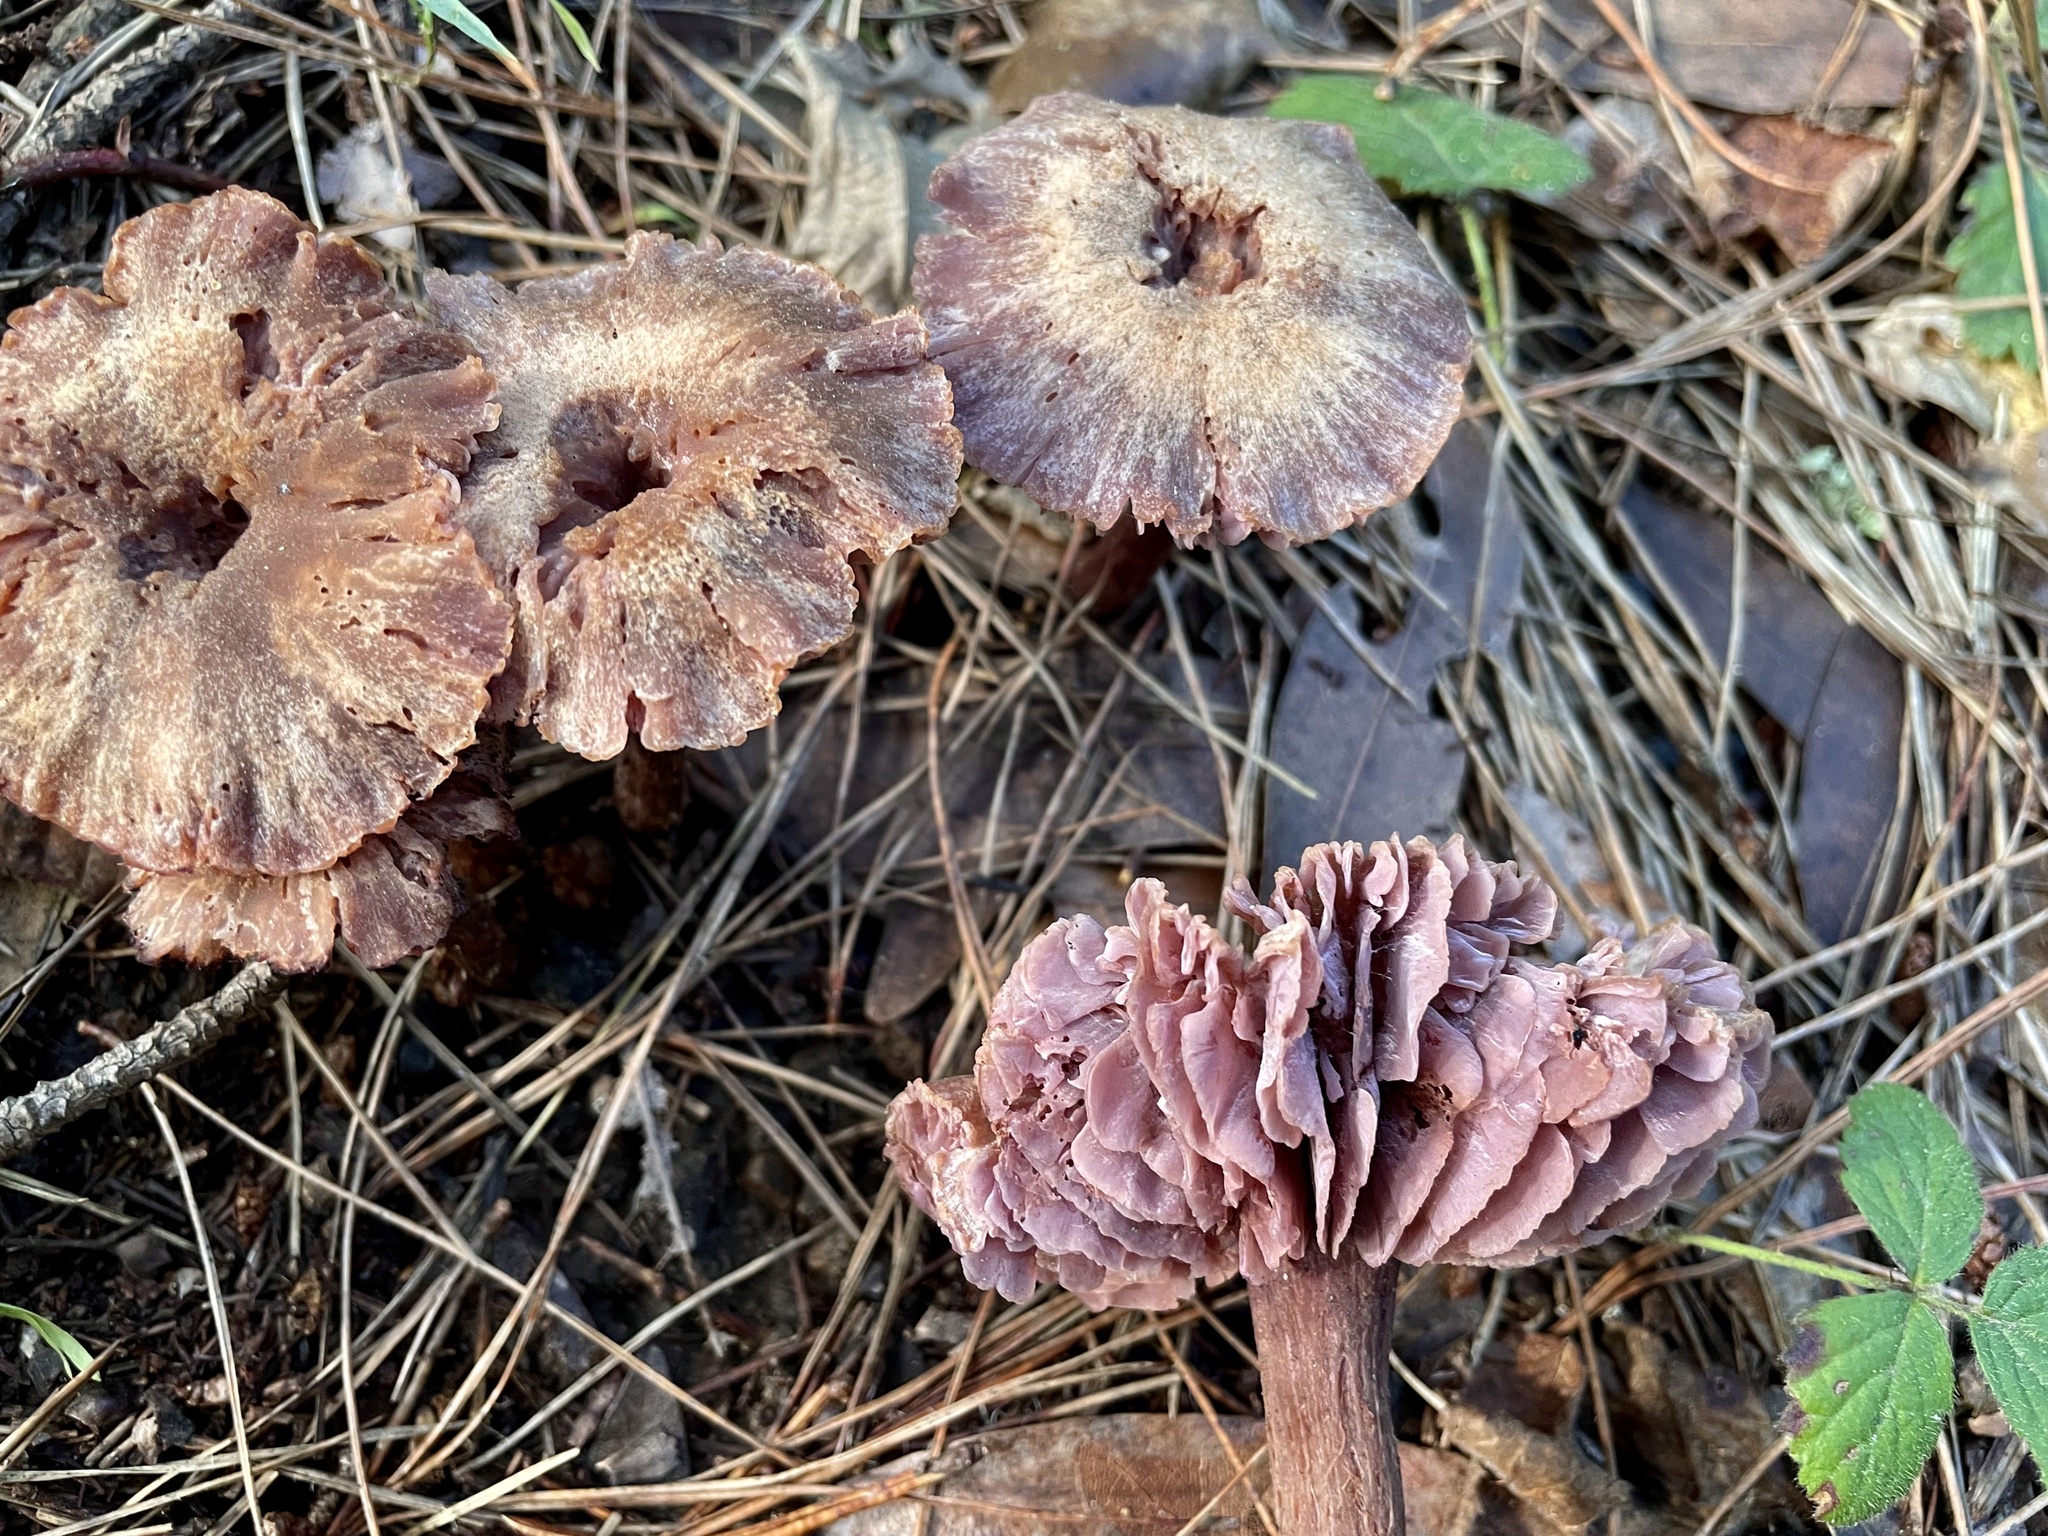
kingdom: Fungi
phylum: Basidiomycota
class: Agaricomycetes
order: Agaricales
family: Hydnangiaceae
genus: Laccaria
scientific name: Laccaria amethysteo-occidentalis
